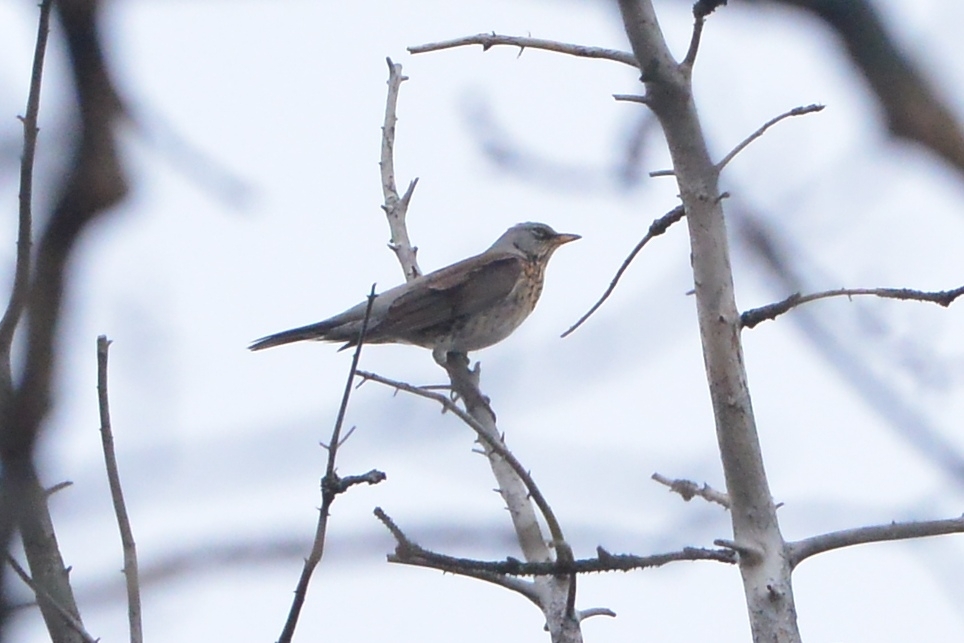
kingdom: Animalia
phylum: Chordata
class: Aves
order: Passeriformes
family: Turdidae
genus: Turdus
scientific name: Turdus pilaris
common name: Fieldfare
